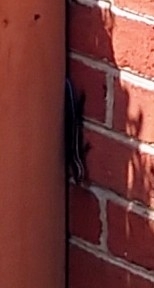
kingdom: Animalia
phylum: Chordata
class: Squamata
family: Scincidae
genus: Plestiodon
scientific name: Plestiodon
